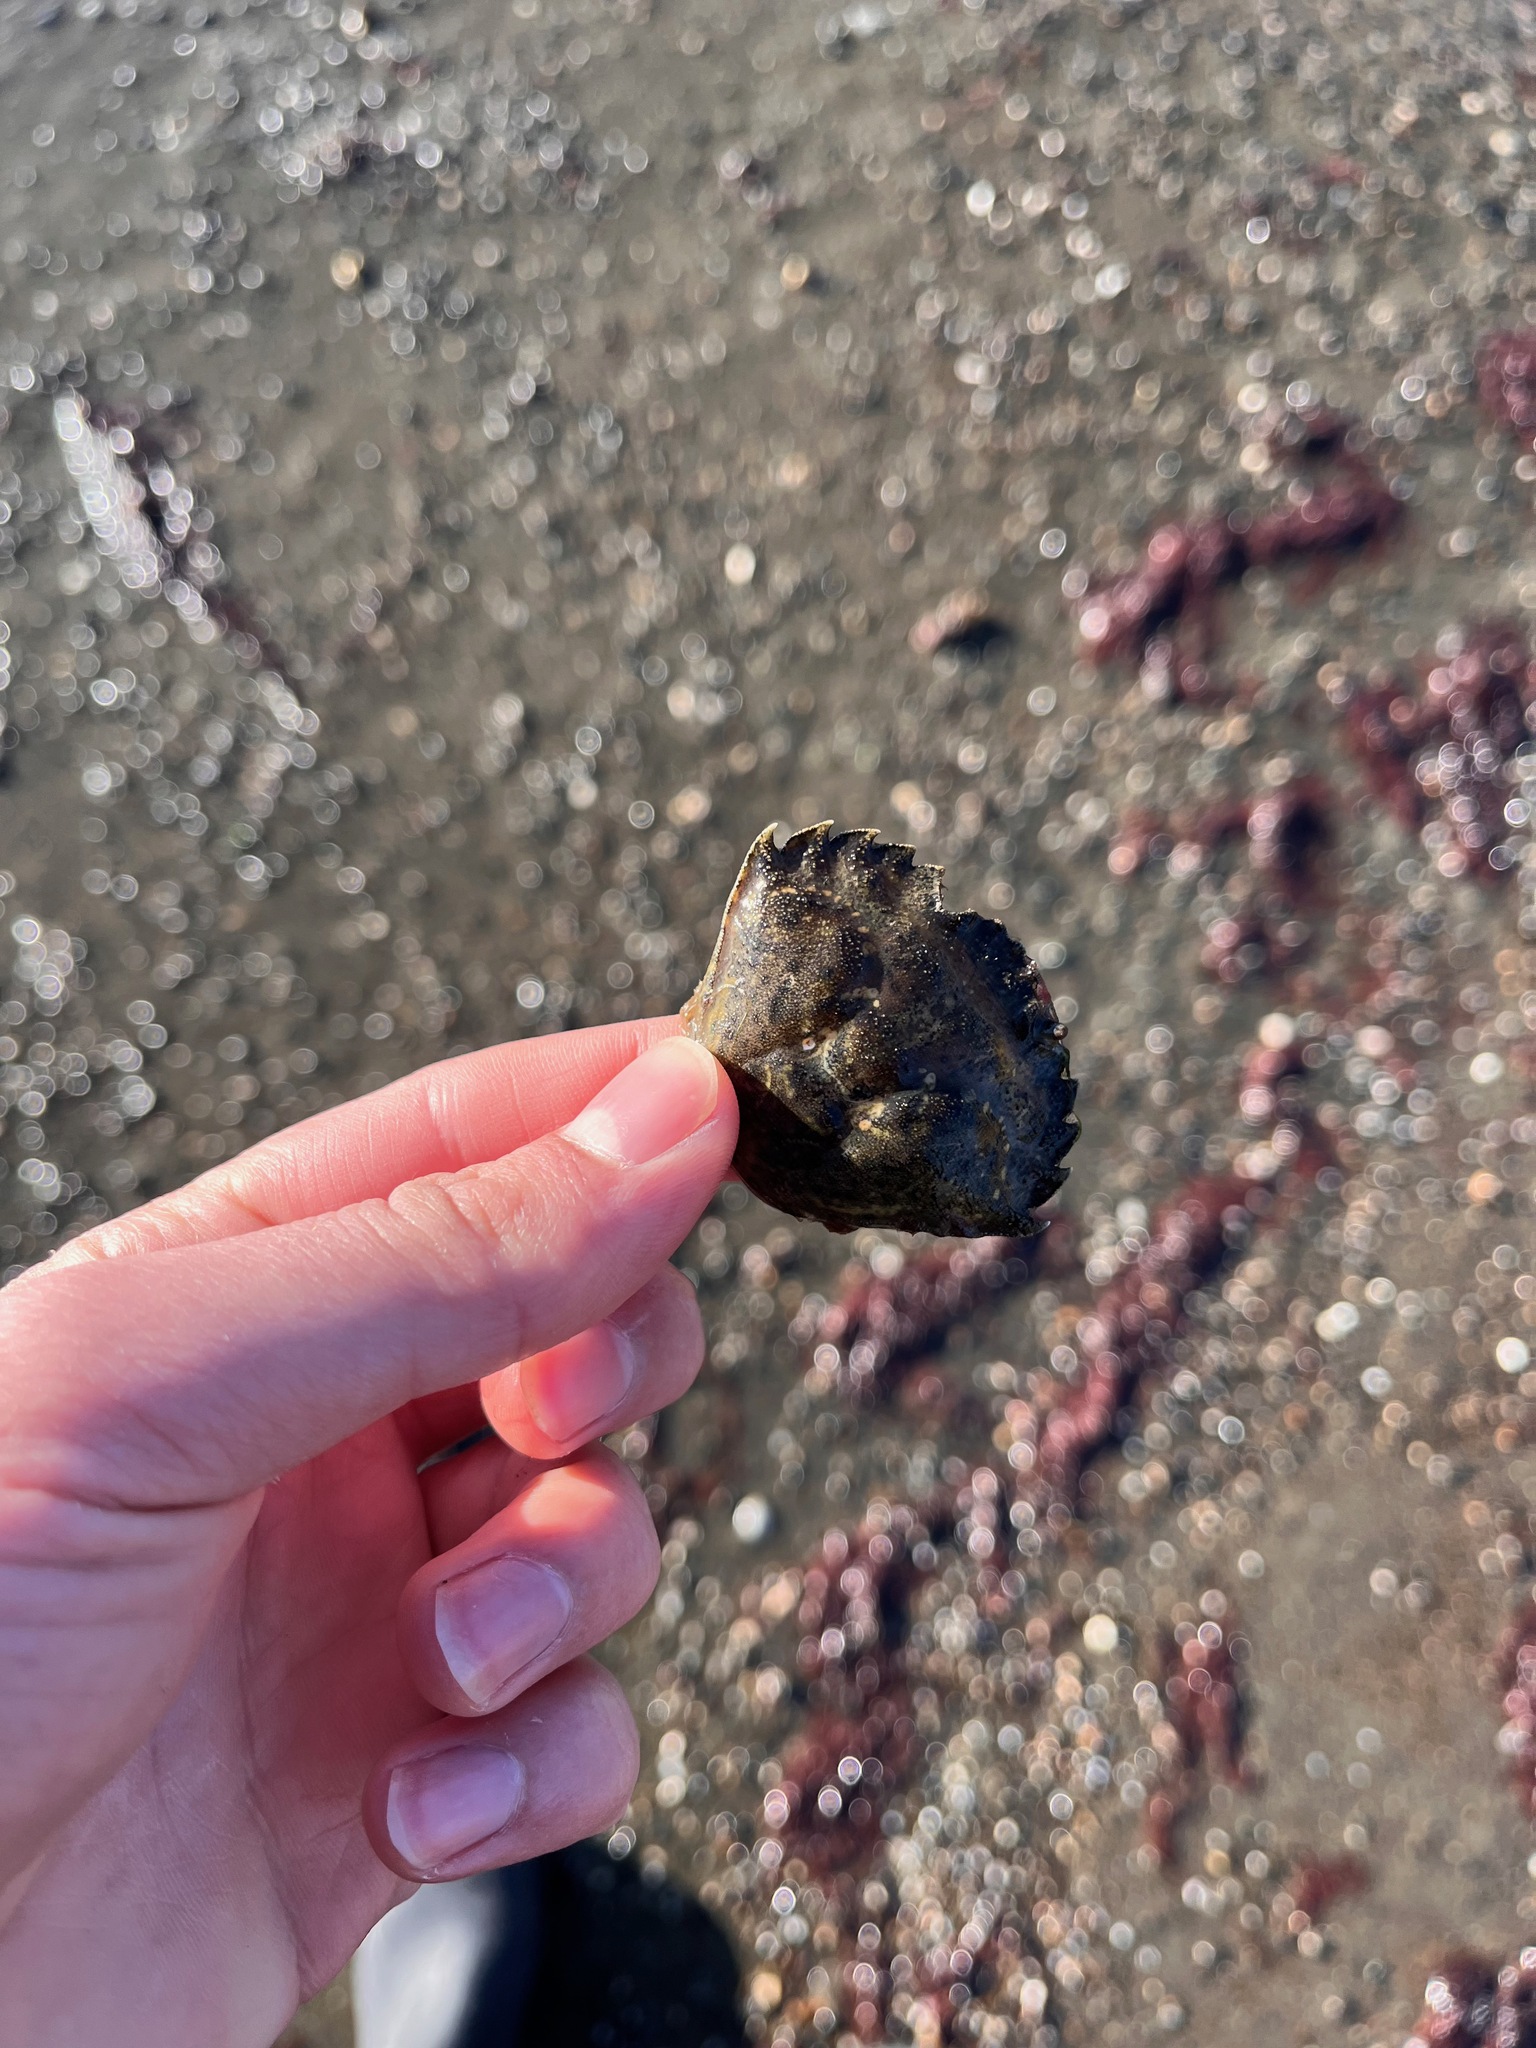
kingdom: Animalia
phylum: Arthropoda
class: Malacostraca
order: Decapoda
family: Carcinidae
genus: Carcinus
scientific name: Carcinus maenas
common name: European green crab
